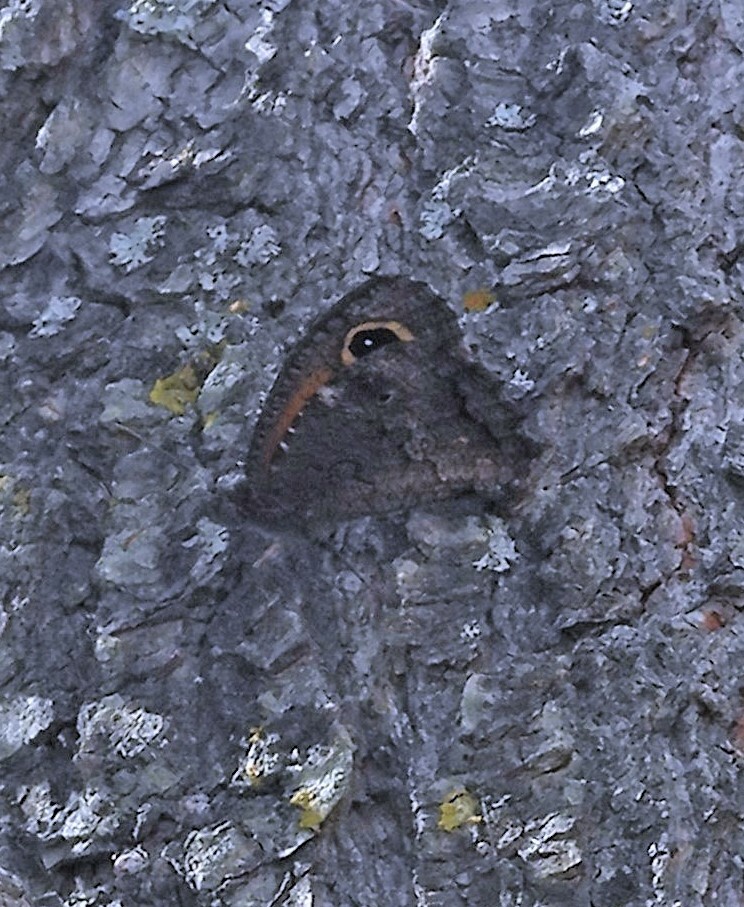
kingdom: Animalia
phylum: Arthropoda
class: Insecta
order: Lepidoptera
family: Nymphalidae
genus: Haywardella
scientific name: Haywardella edmondsii
